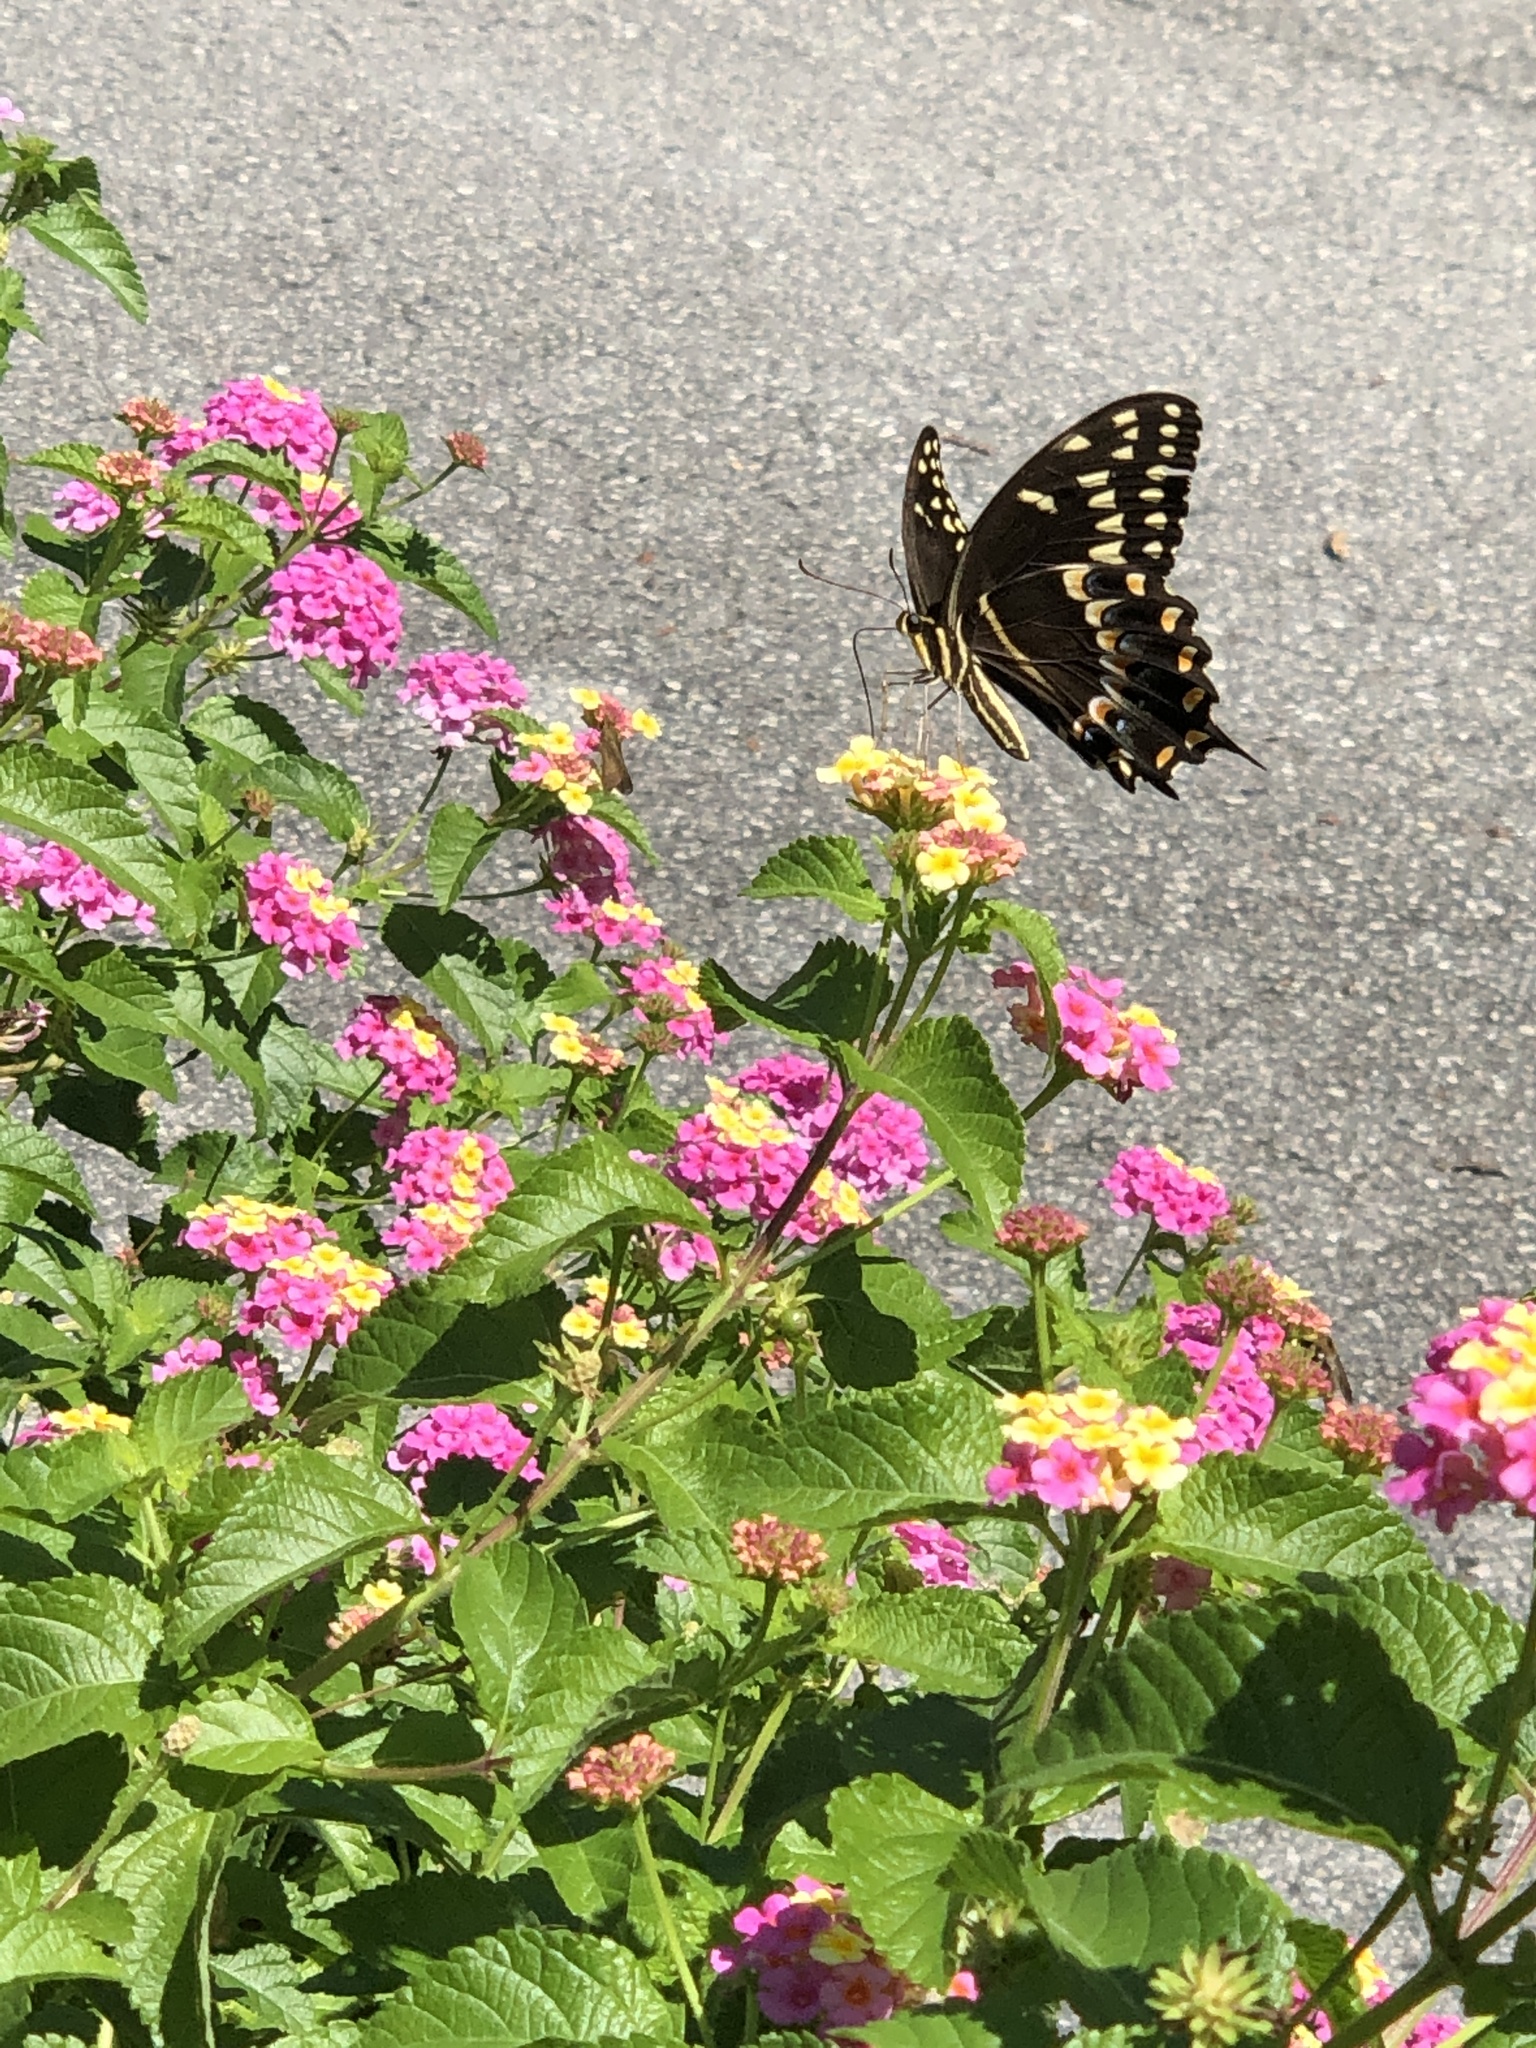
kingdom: Animalia
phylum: Arthropoda
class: Insecta
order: Lepidoptera
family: Papilionidae
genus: Papilio
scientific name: Papilio palamedes
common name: Palamedes swallowtail
